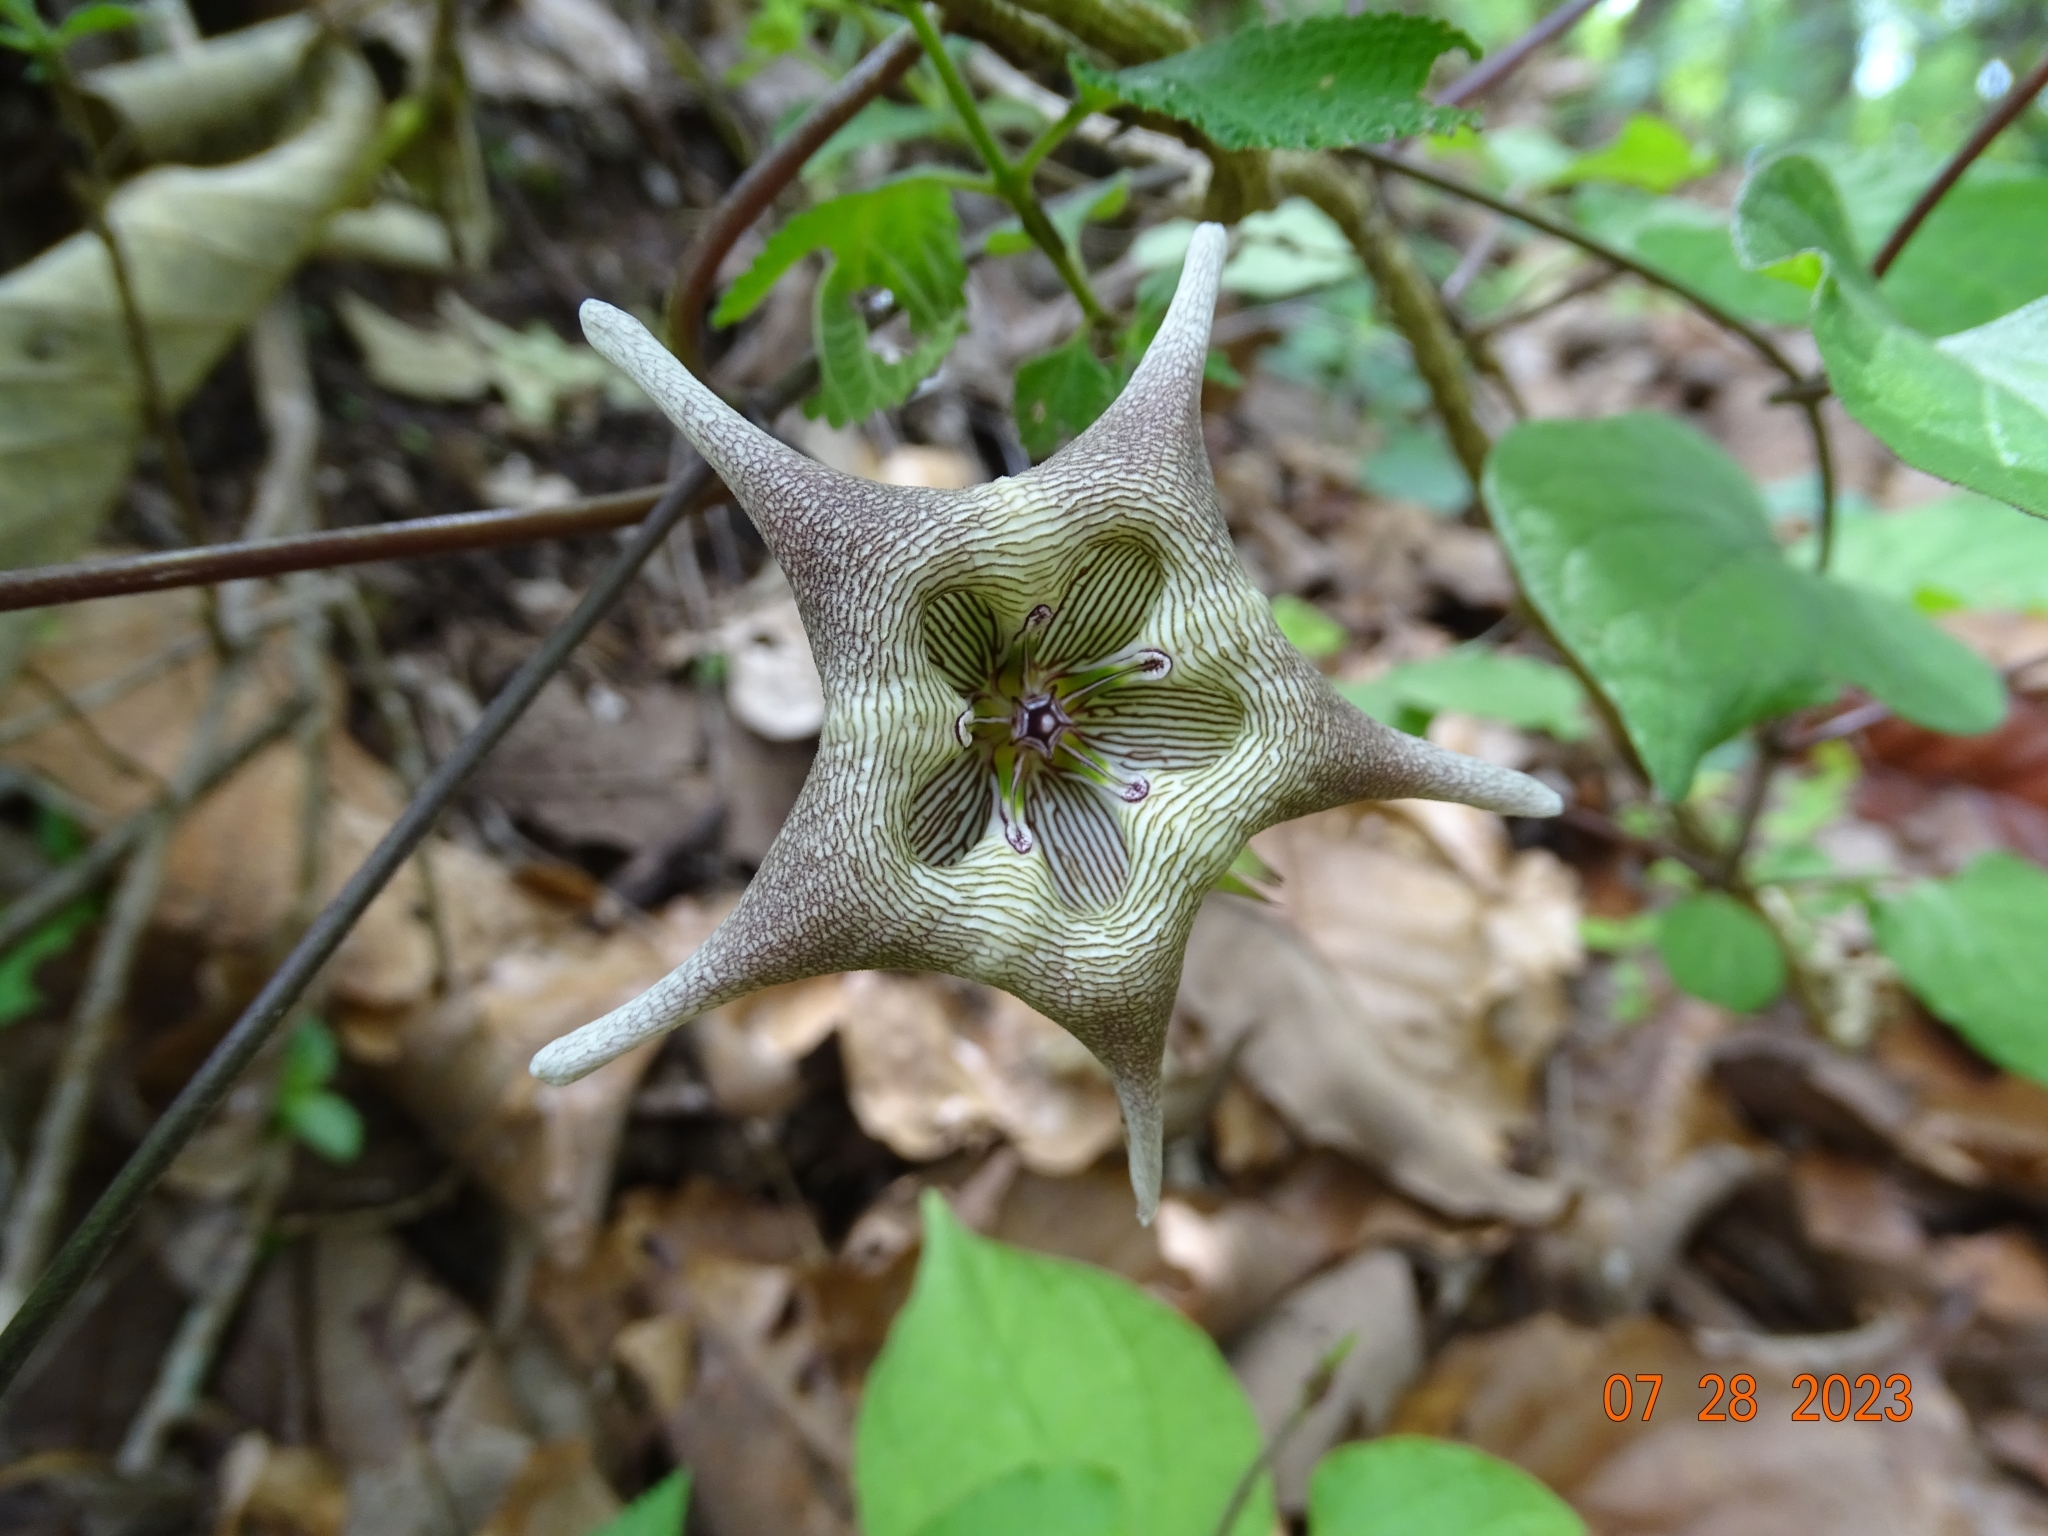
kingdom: Plantae
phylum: Tracheophyta
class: Magnoliopsida
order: Gentianales
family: Apocynaceae
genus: Dictyanthus
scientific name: Dictyanthus pavonii
